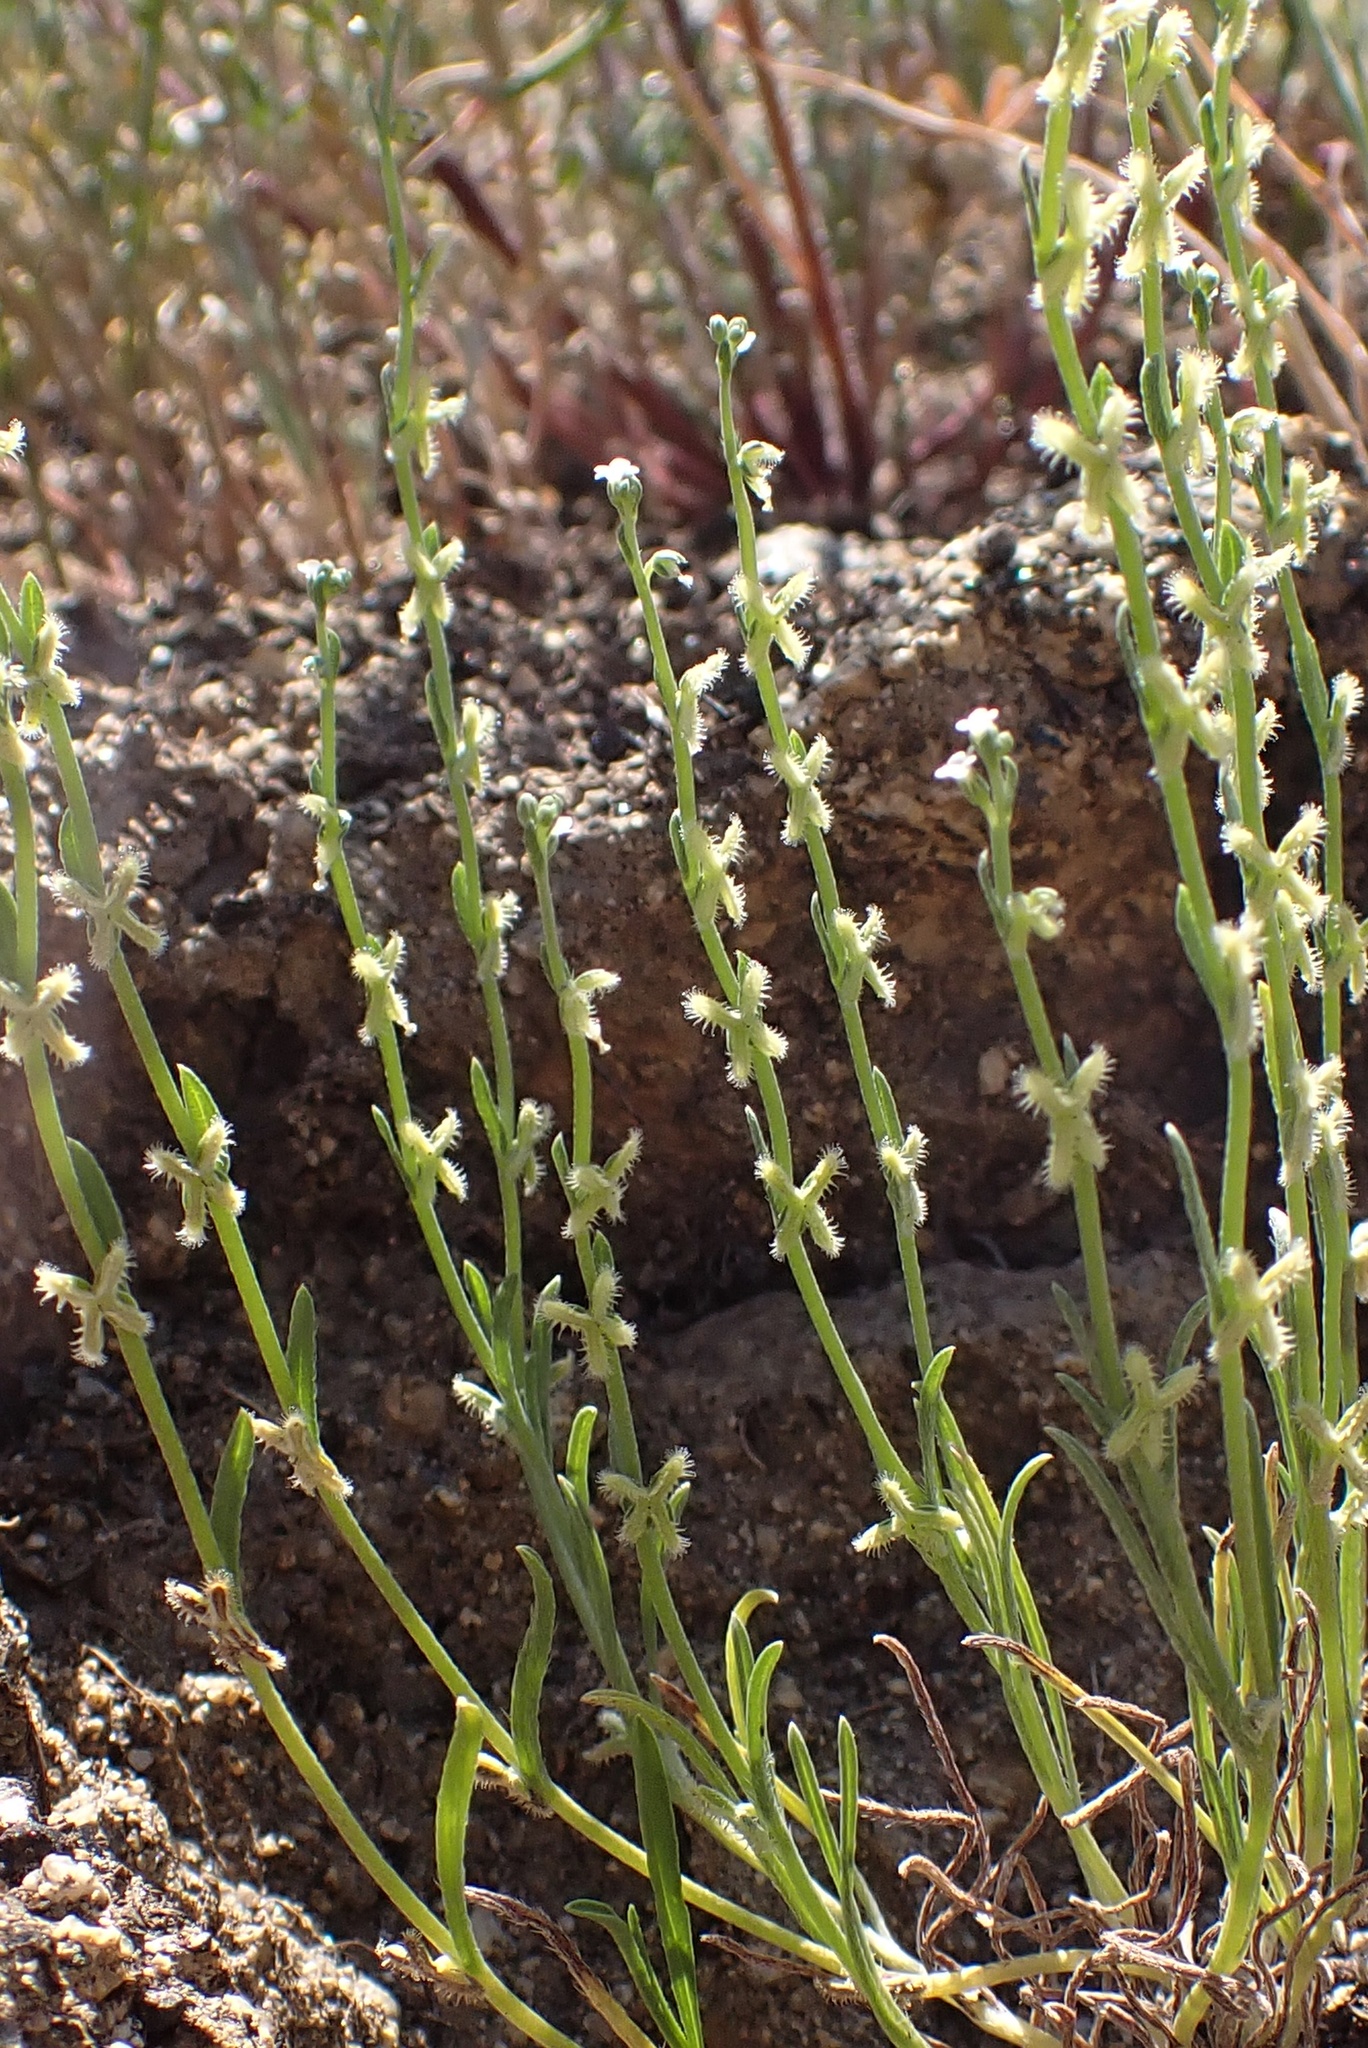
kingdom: Plantae
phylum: Tracheophyta
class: Magnoliopsida
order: Boraginales
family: Boraginaceae
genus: Pectocarya
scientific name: Pectocarya linearis
